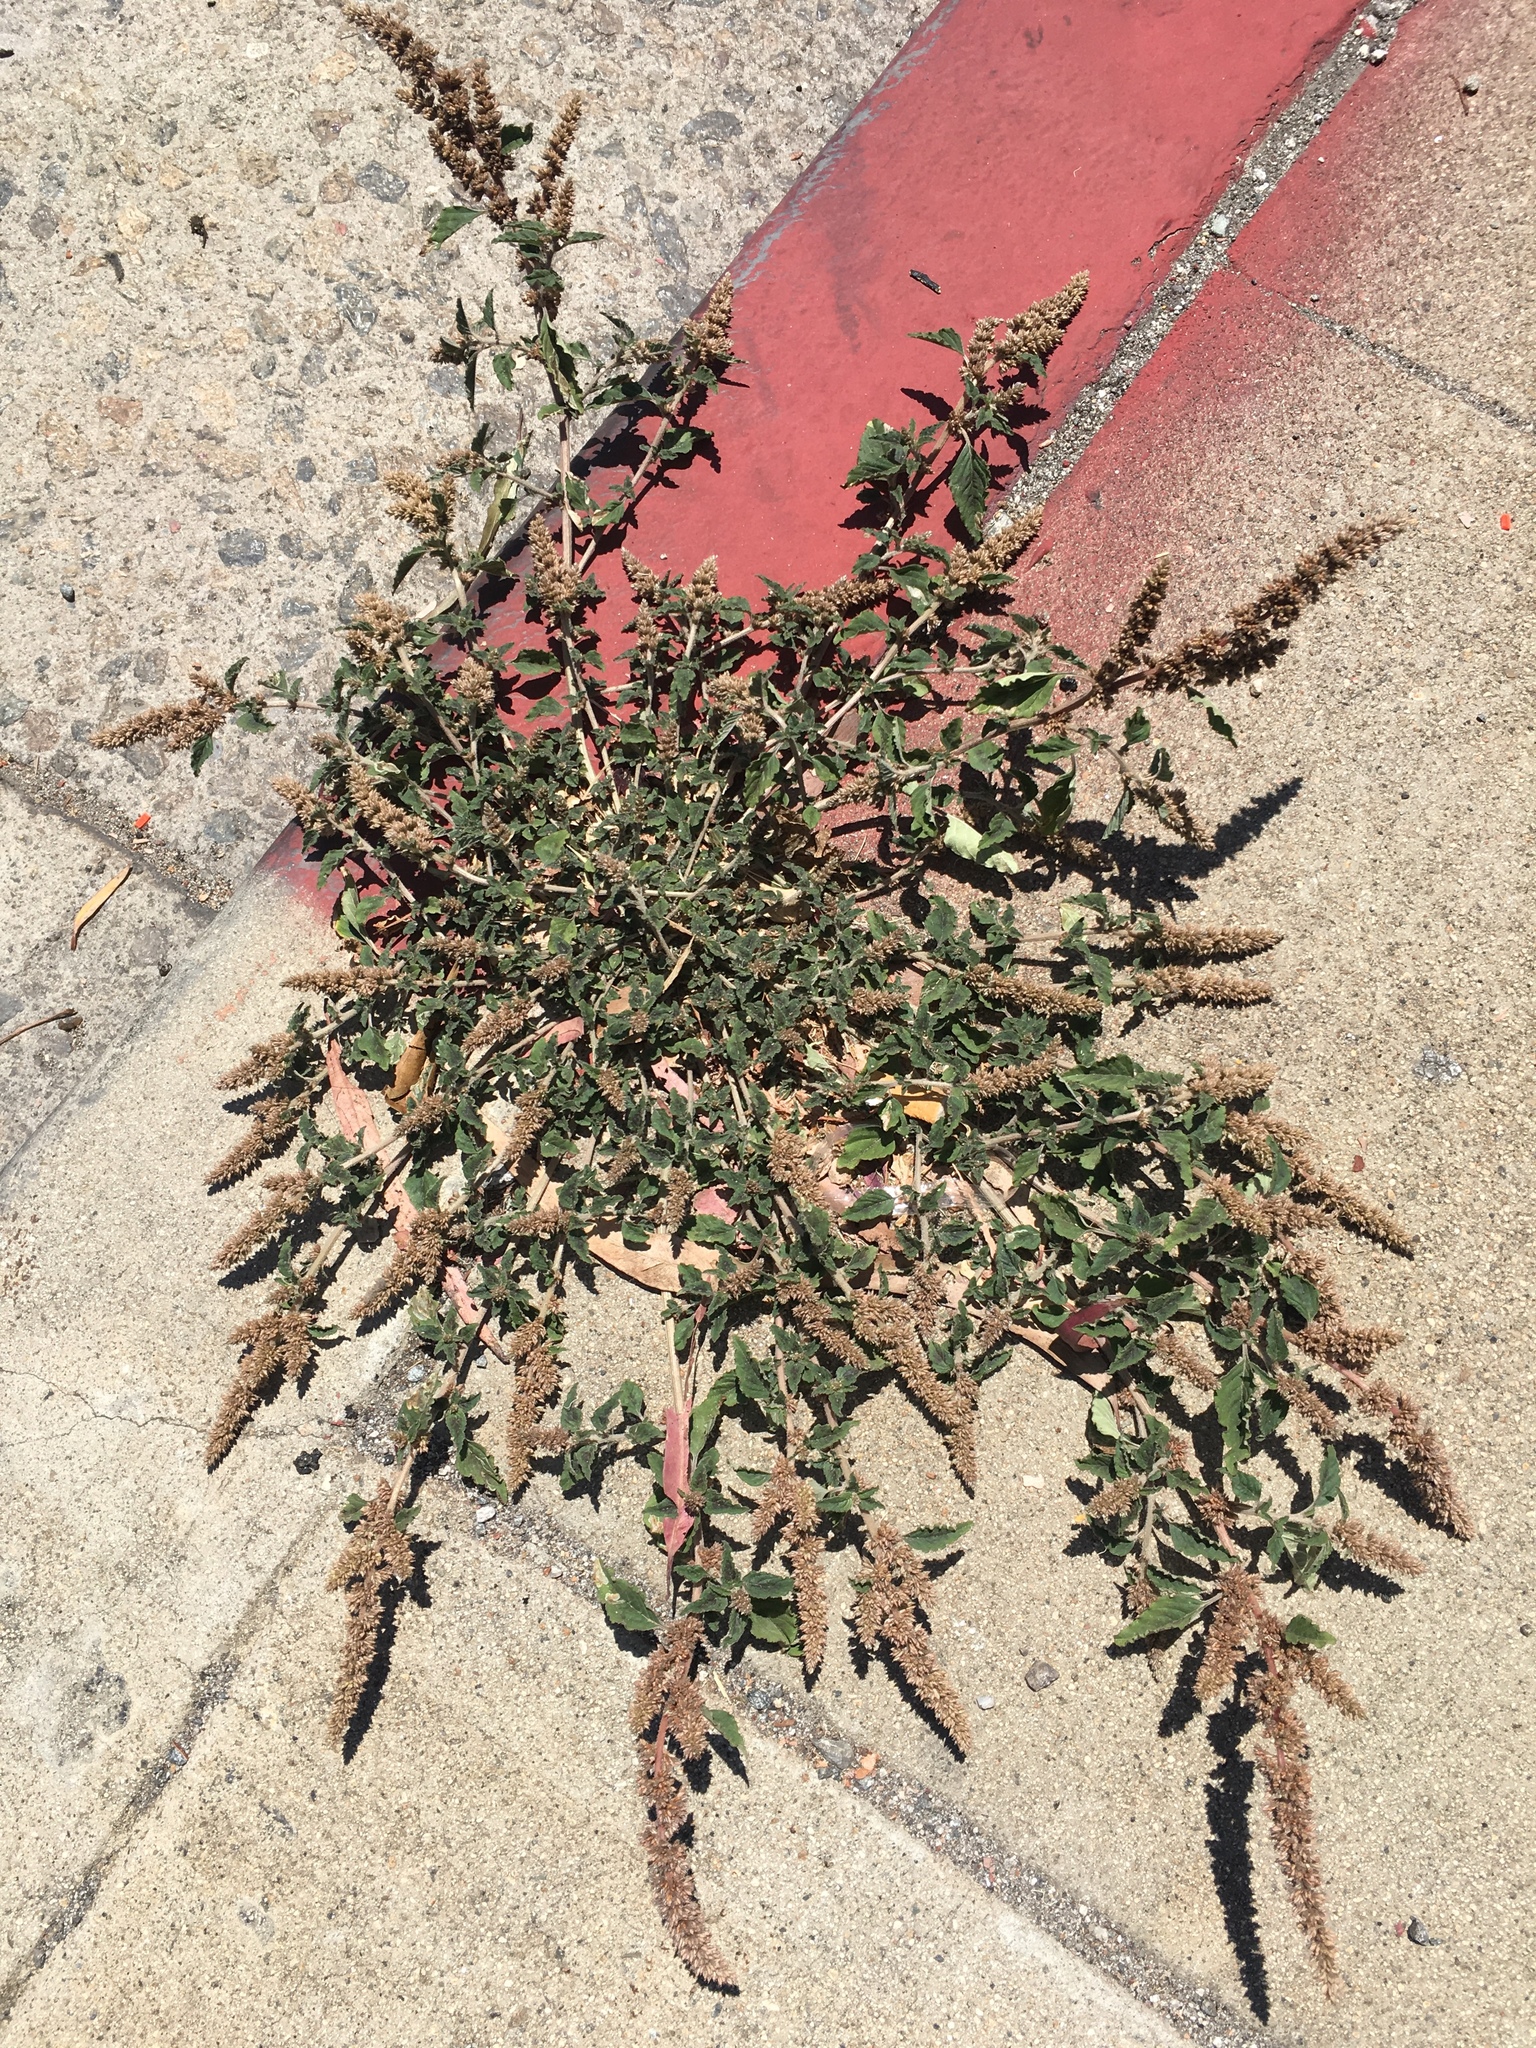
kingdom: Plantae
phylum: Tracheophyta
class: Magnoliopsida
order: Caryophyllales
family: Amaranthaceae
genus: Amaranthus
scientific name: Amaranthus deflexus
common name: Perennial pigweed
